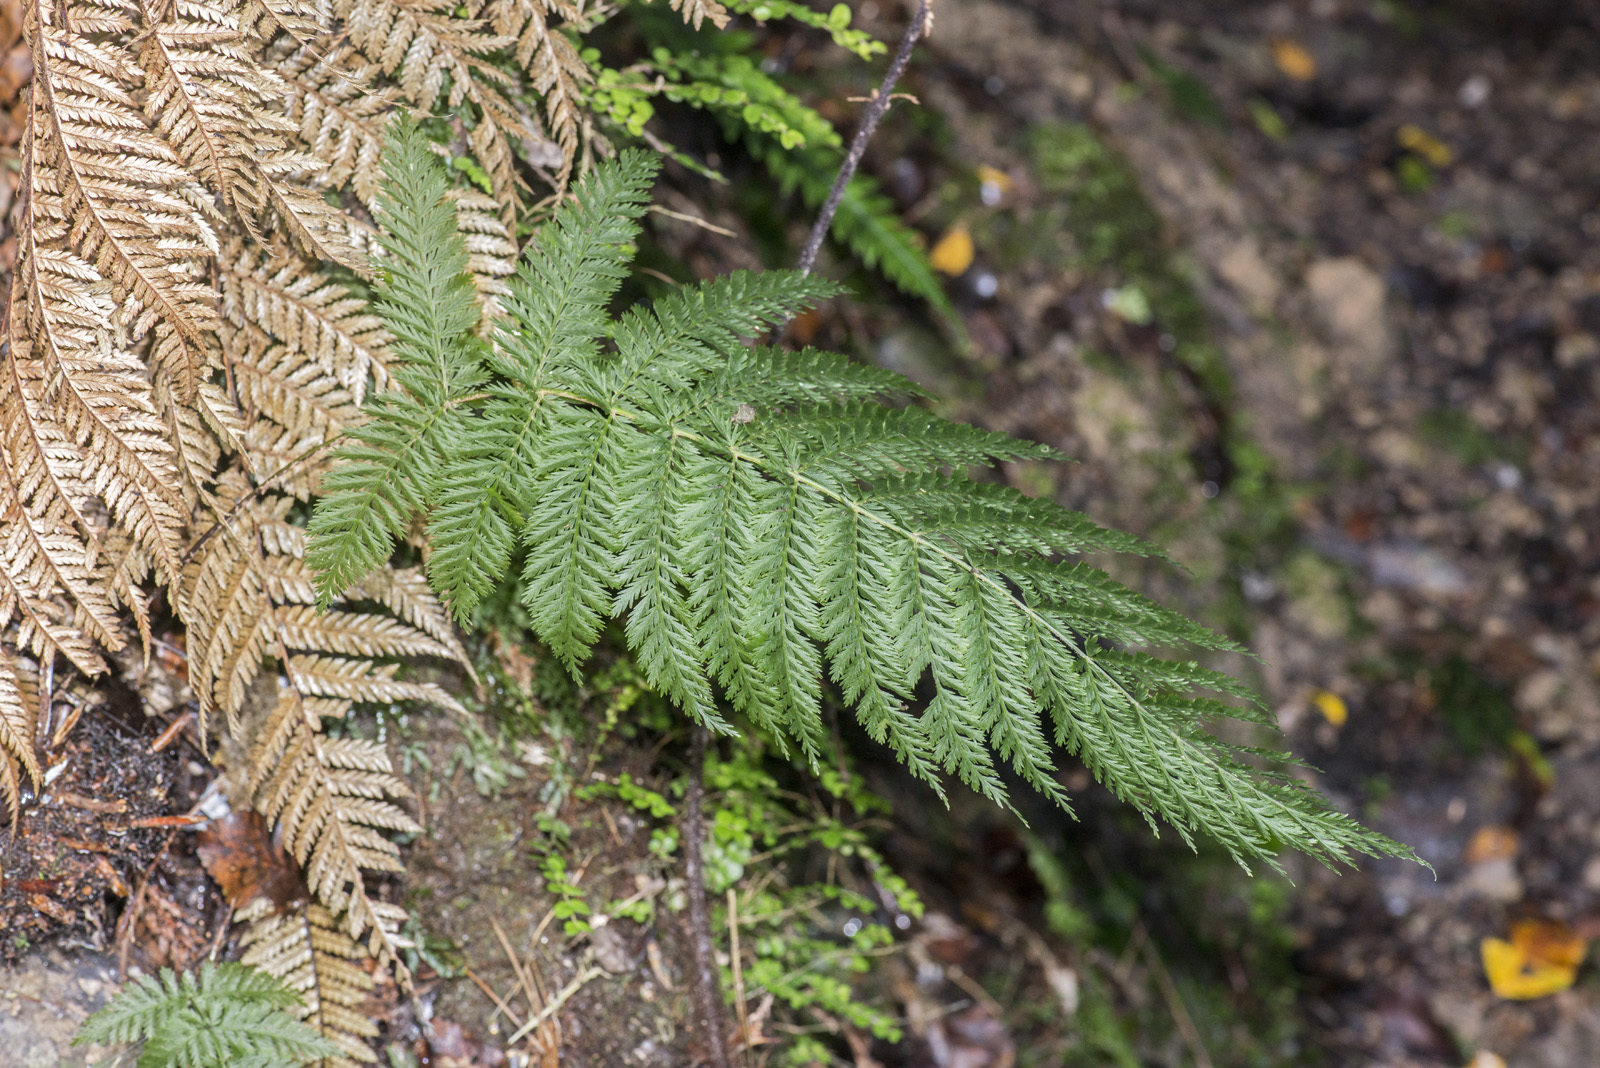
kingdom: Plantae
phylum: Tracheophyta
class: Polypodiopsida
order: Osmundales
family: Osmundaceae
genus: Leptopteris
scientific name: Leptopteris hymenophylloides
